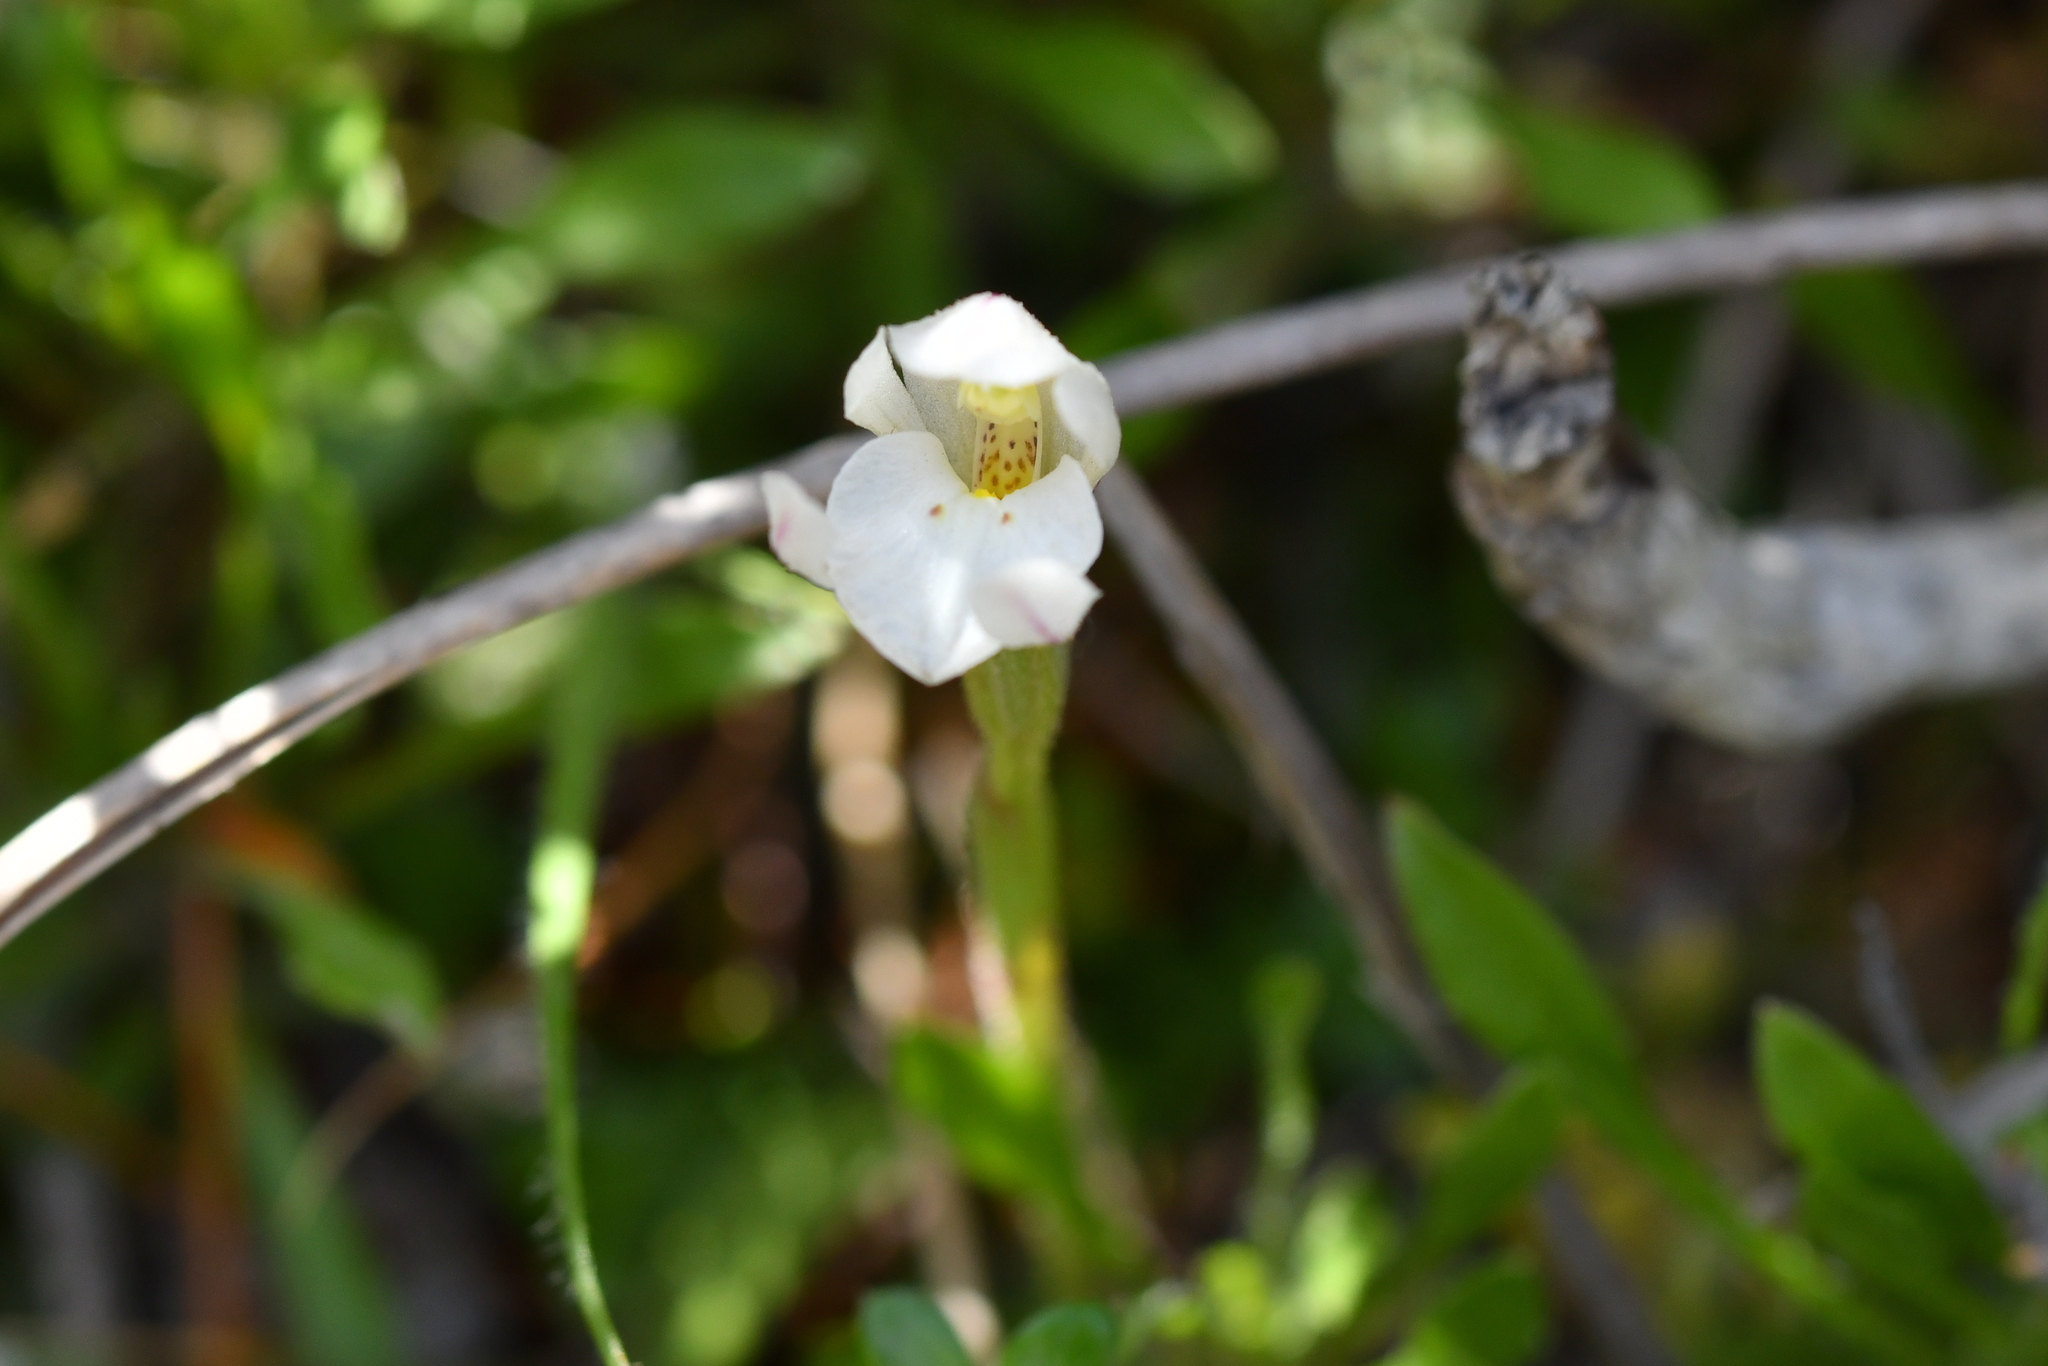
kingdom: Plantae
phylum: Tracheophyta
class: Liliopsida
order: Asparagales
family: Orchidaceae
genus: Aporostylis
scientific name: Aporostylis bifolia
